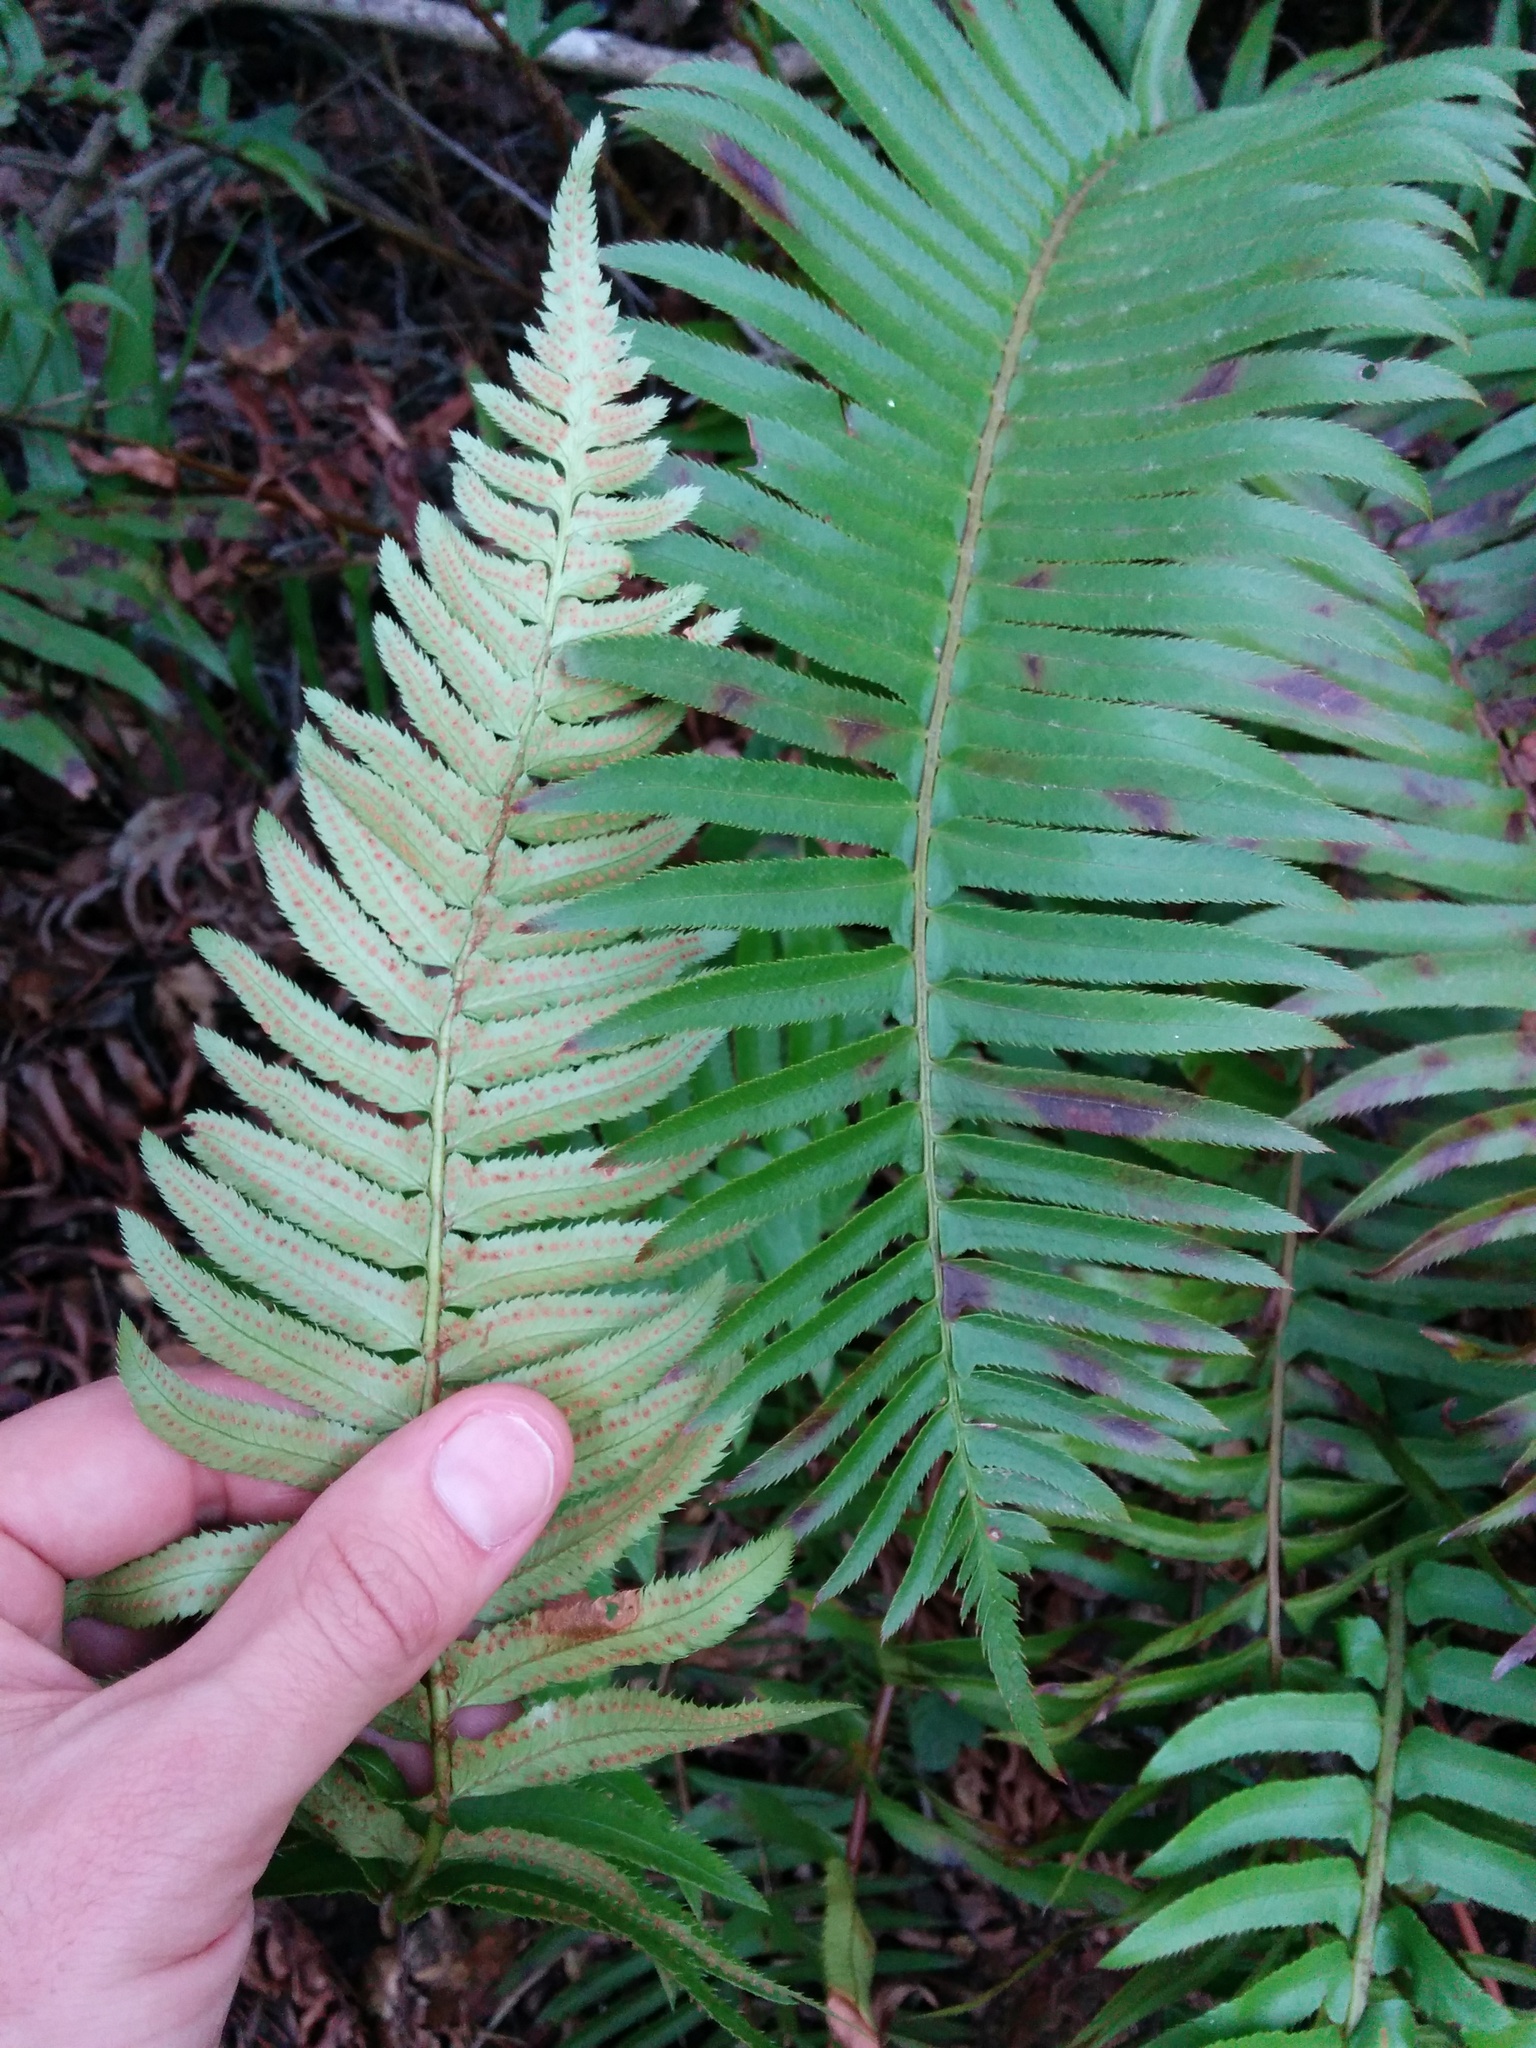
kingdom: Plantae
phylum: Tracheophyta
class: Polypodiopsida
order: Polypodiales
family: Dryopteridaceae
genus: Polystichum
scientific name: Polystichum munitum
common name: Western sword-fern
